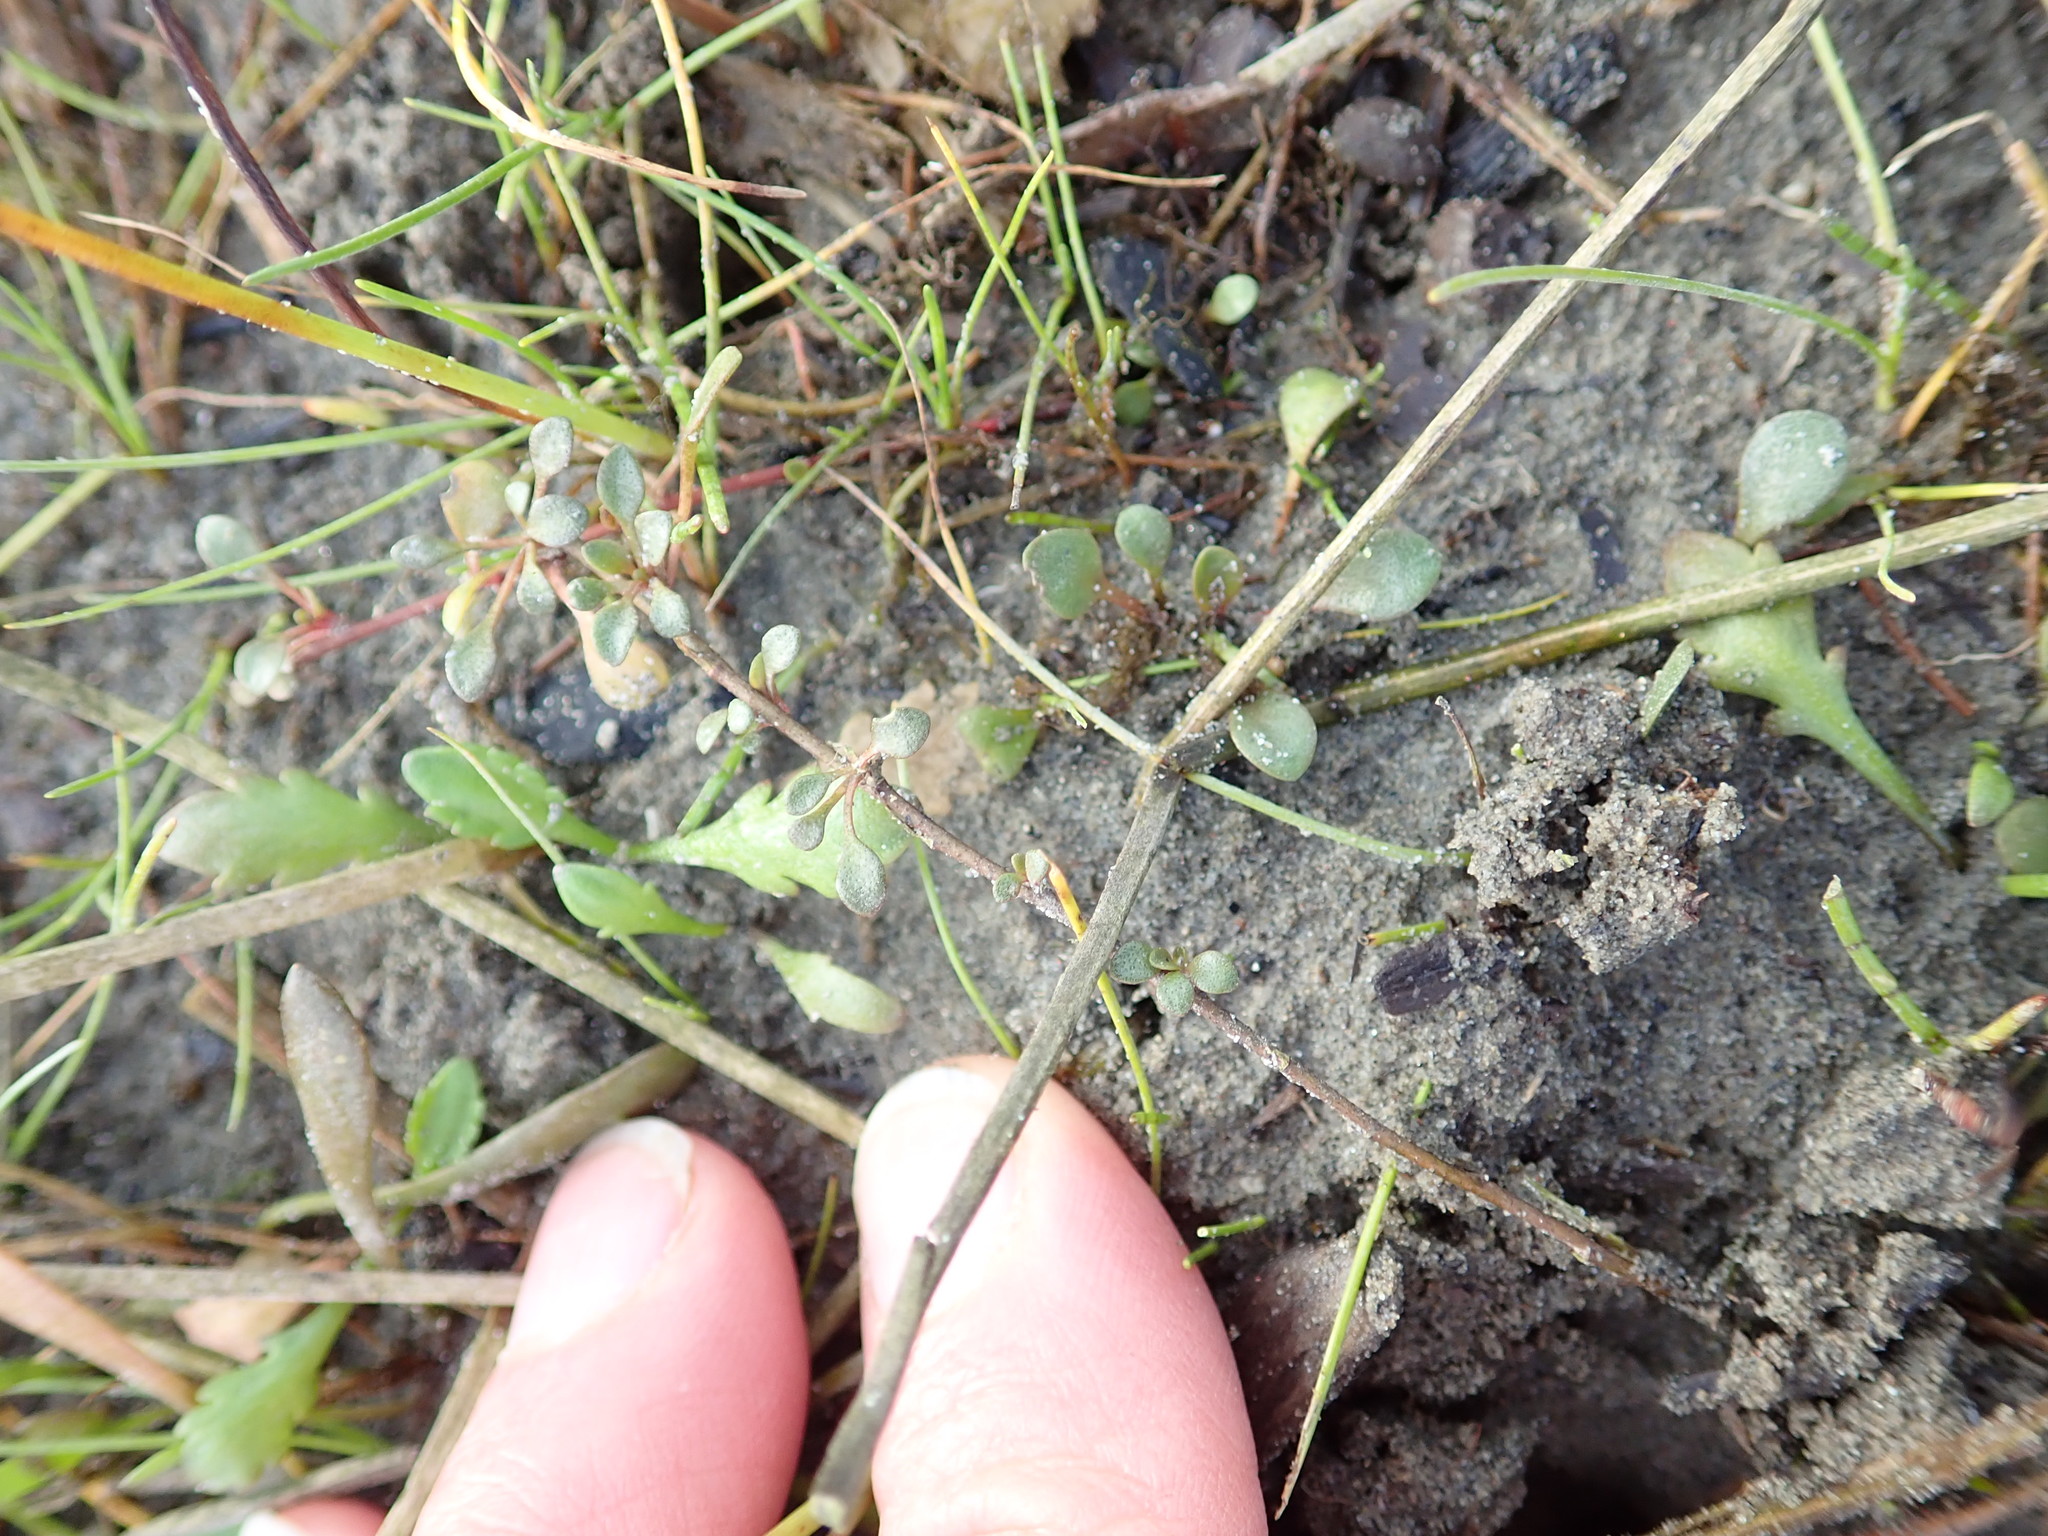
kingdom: Plantae
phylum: Tracheophyta
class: Magnoliopsida
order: Ericales
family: Primulaceae
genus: Samolus
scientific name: Samolus repens
